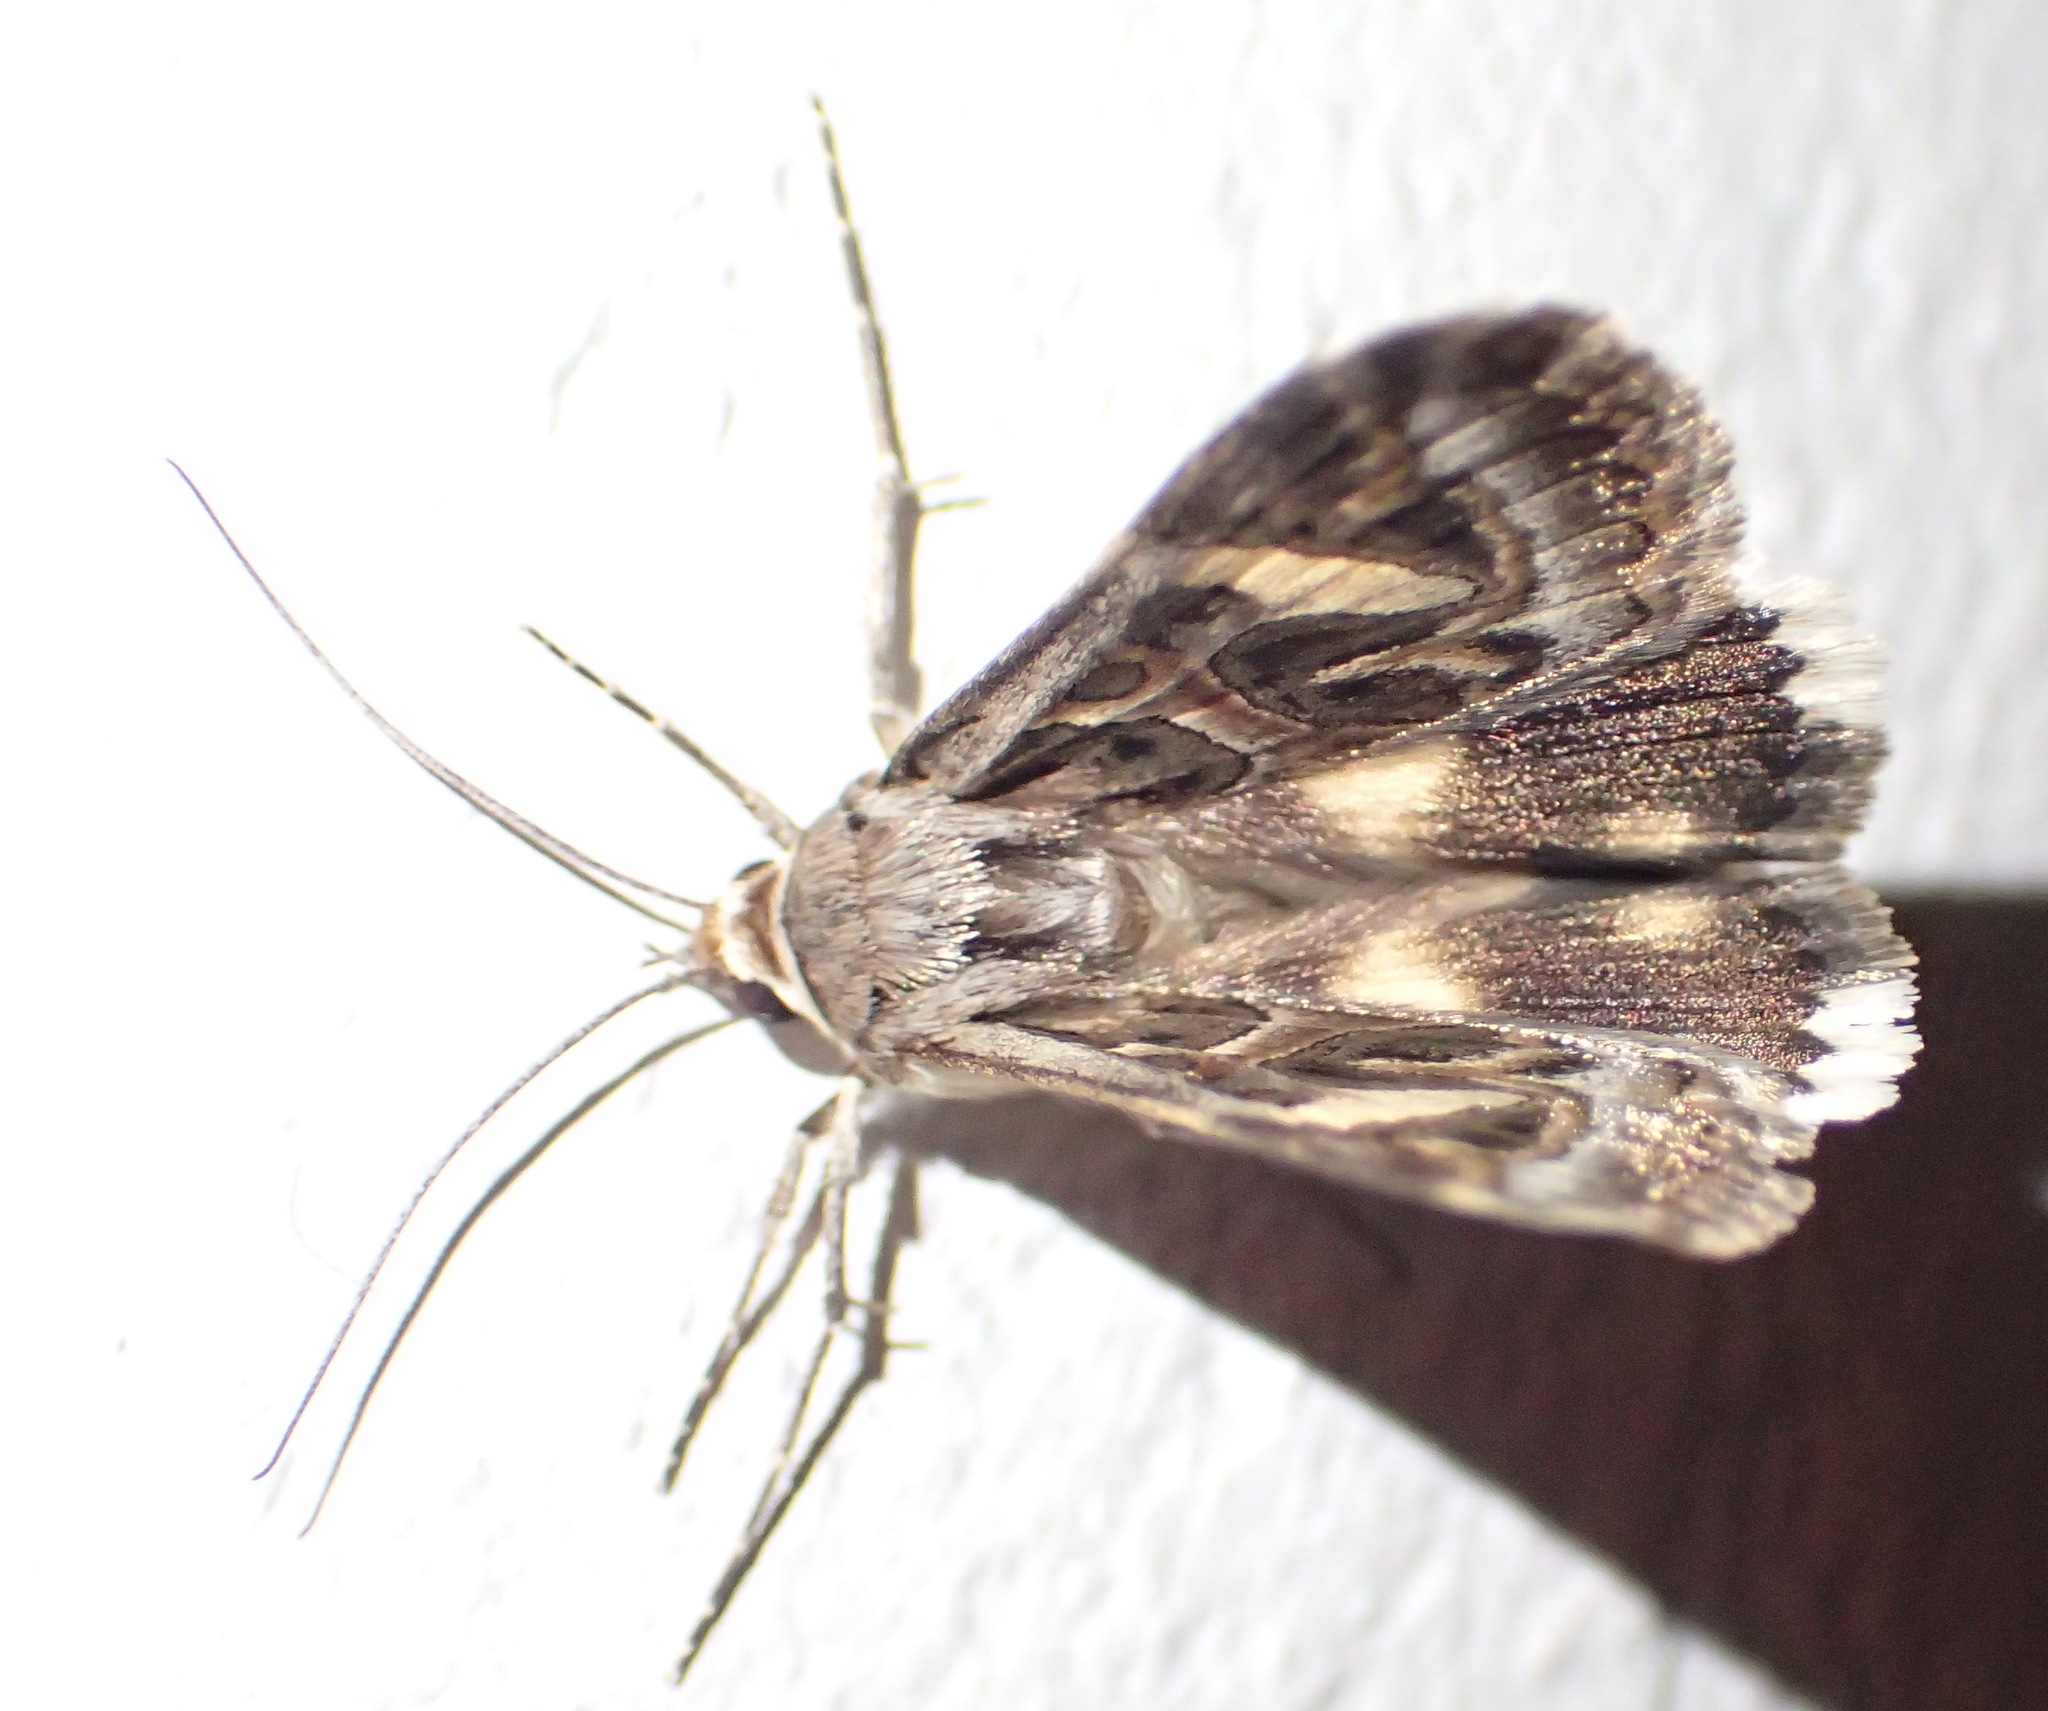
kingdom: Animalia
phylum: Arthropoda
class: Insecta
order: Lepidoptera
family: Erebidae
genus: Cerocala
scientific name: Cerocala vermiculosa
